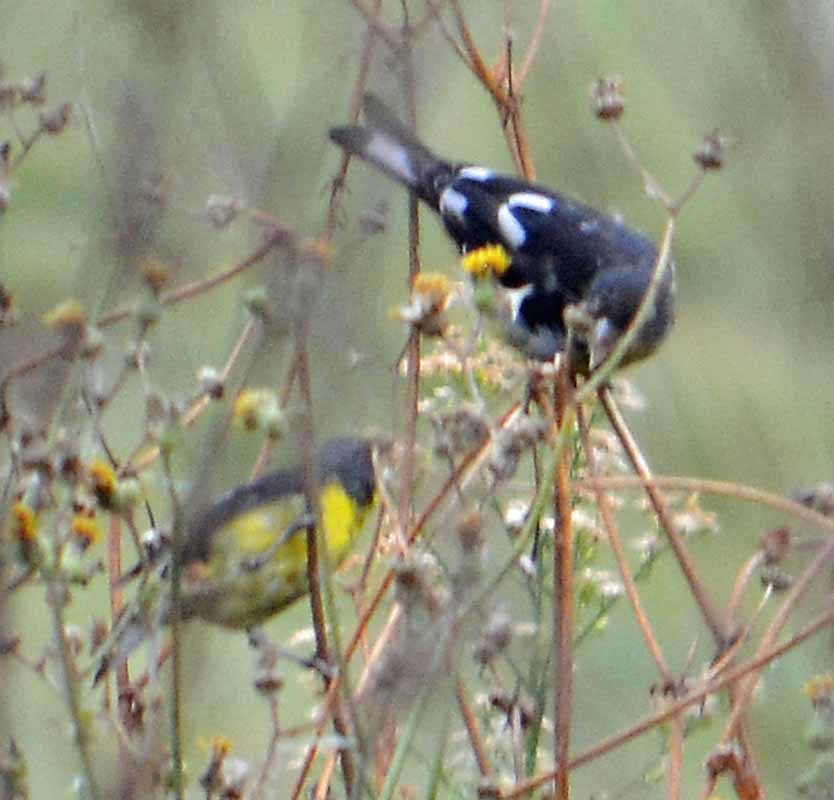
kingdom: Animalia
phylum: Chordata
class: Aves
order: Passeriformes
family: Fringillidae
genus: Spinus
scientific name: Spinus psaltria
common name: Lesser goldfinch
